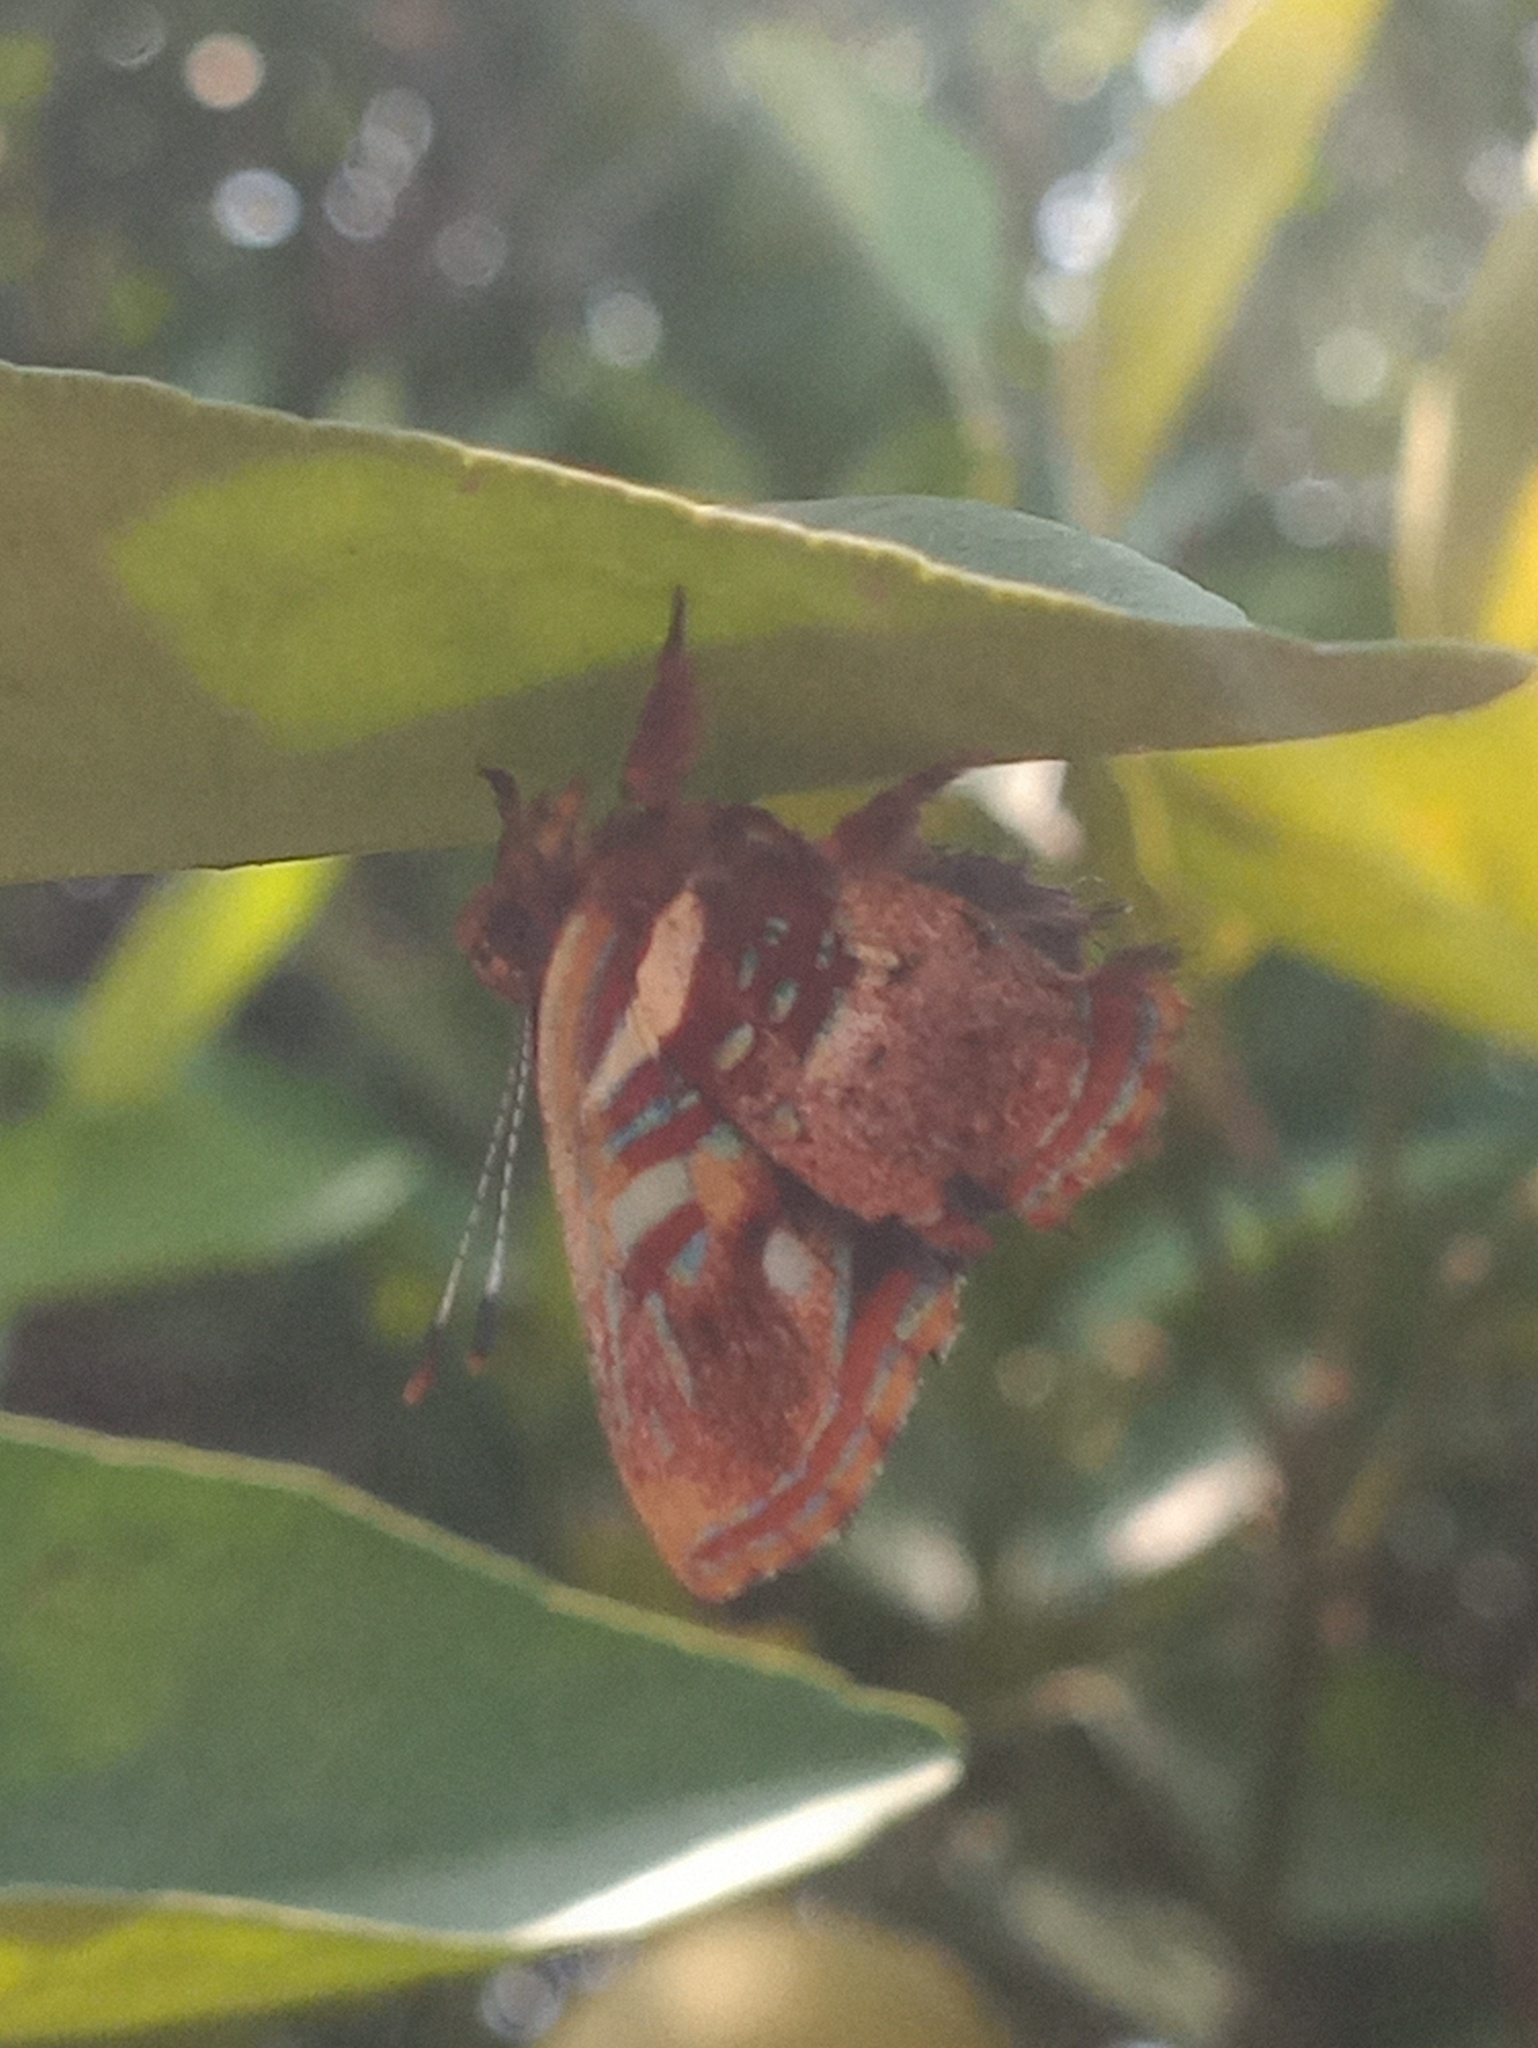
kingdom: Animalia
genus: Anteros
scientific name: Anteros carausius
